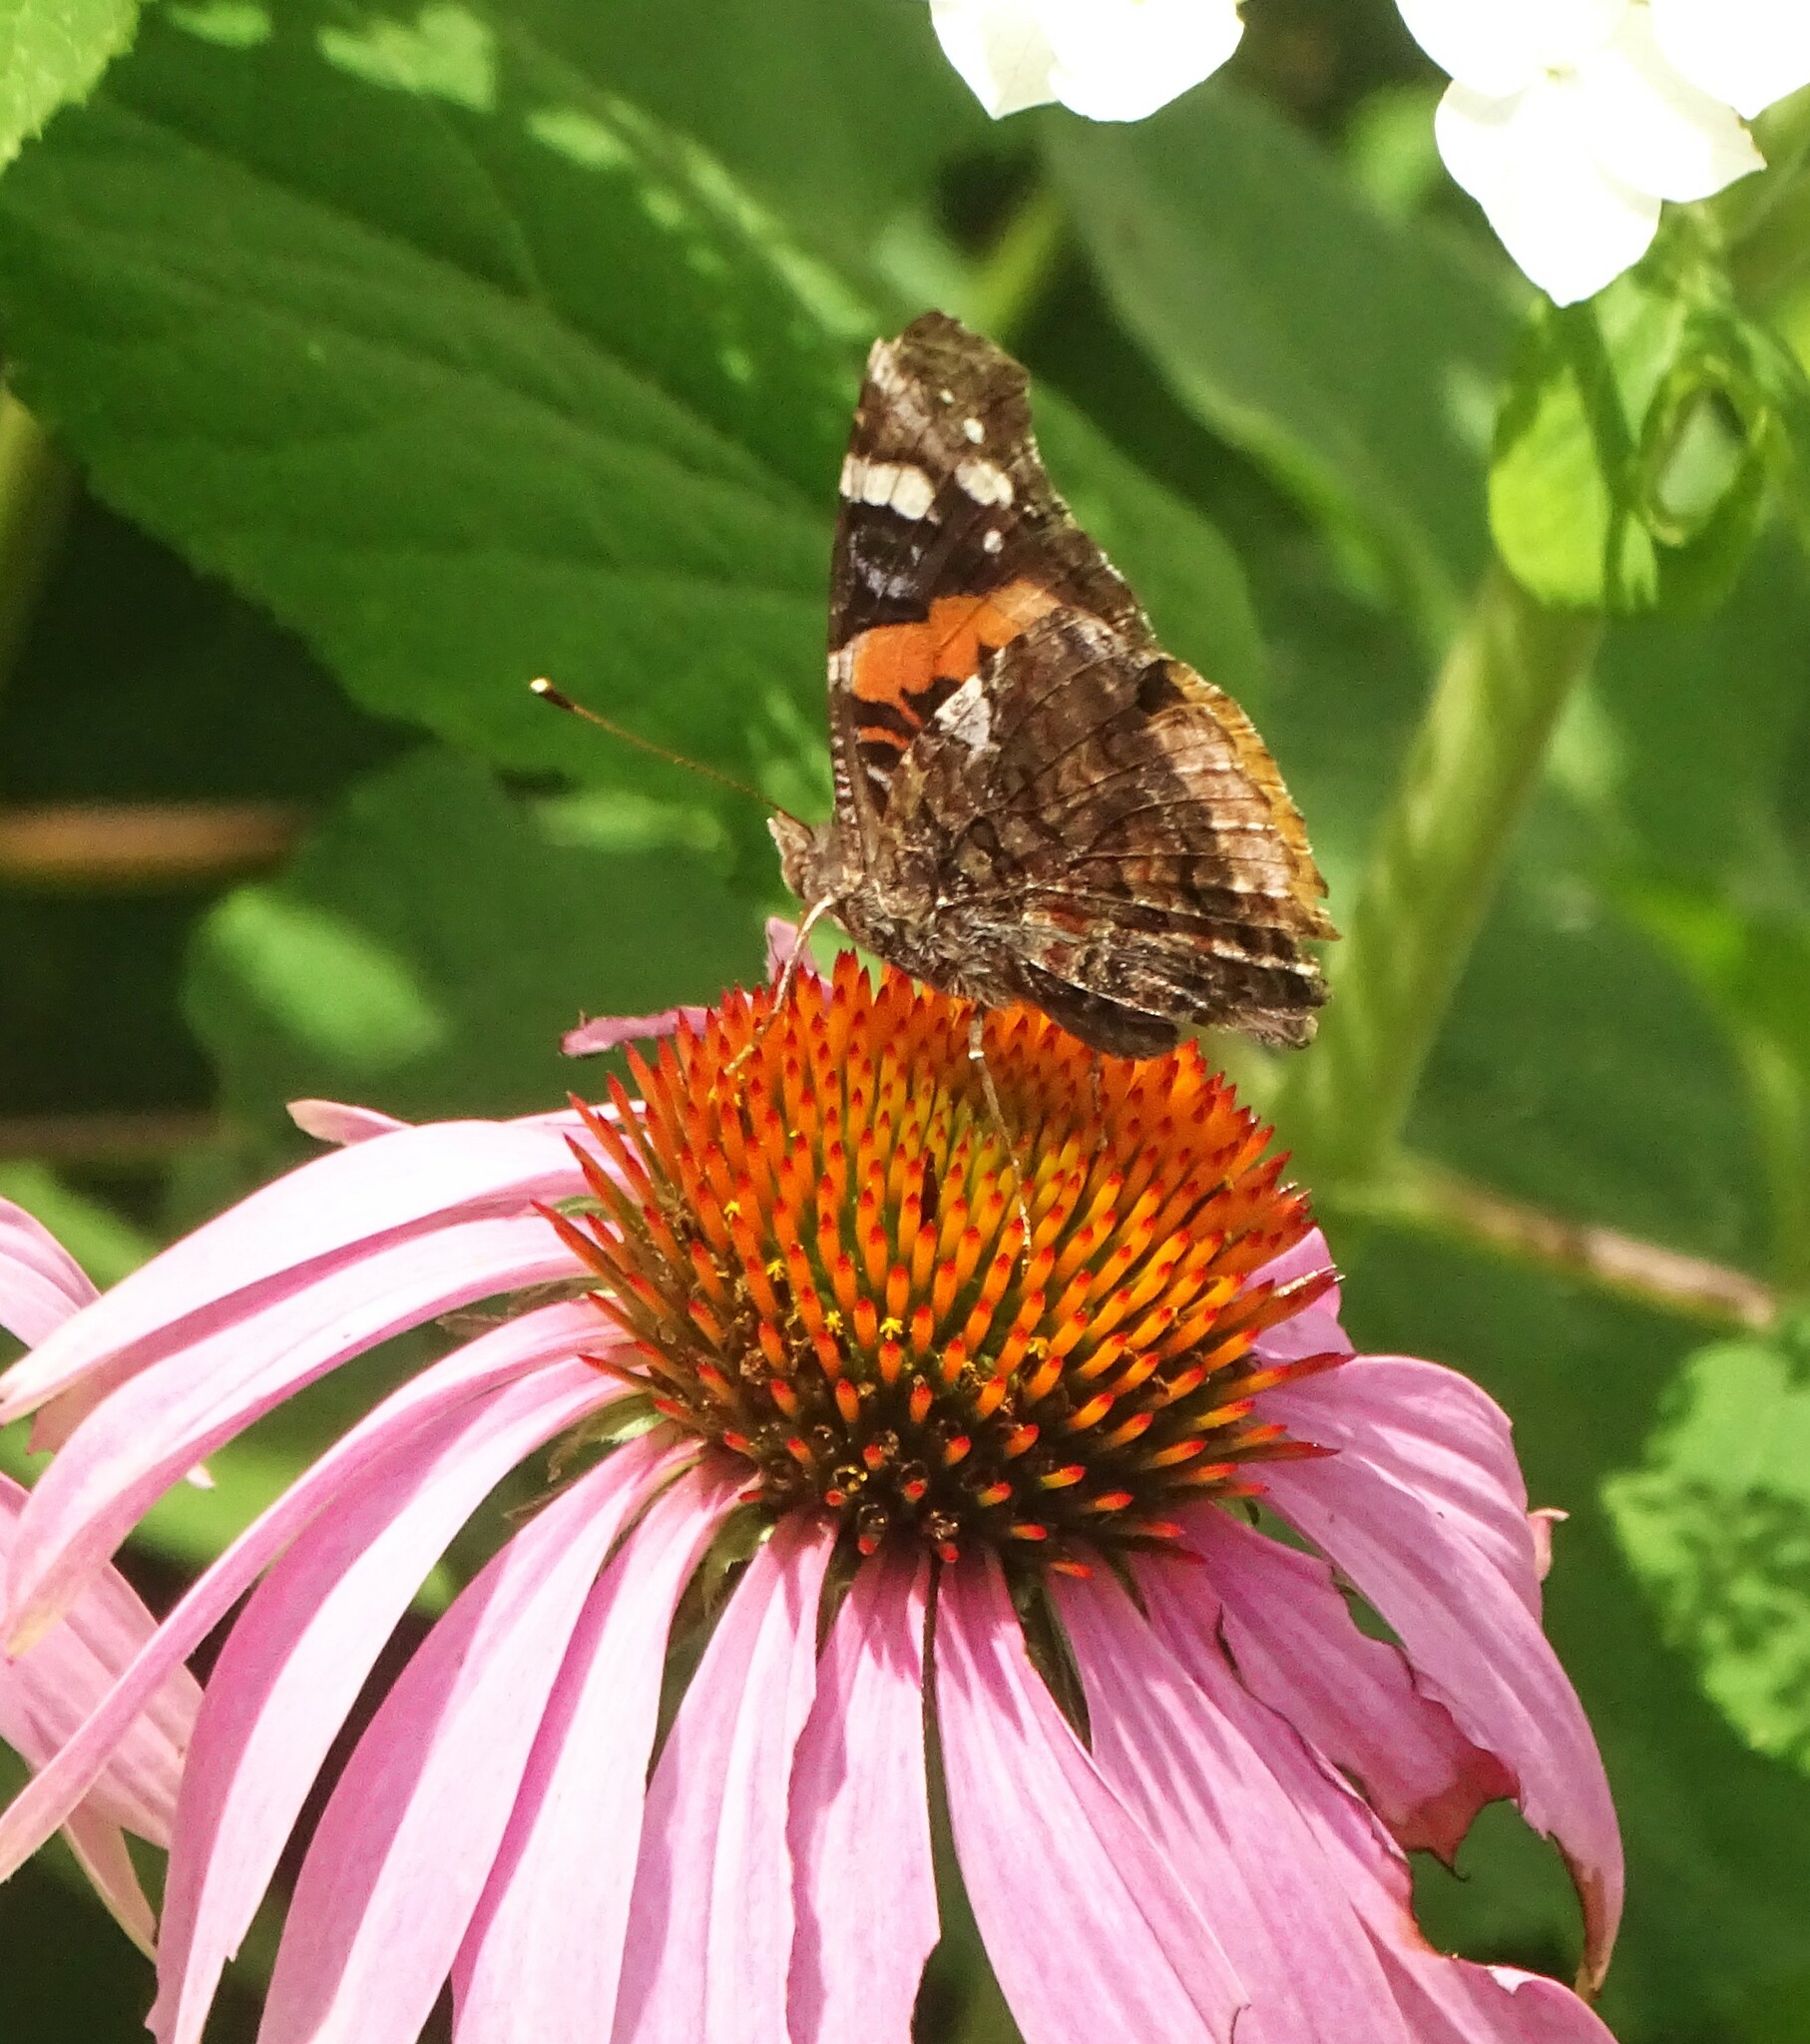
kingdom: Animalia
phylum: Arthropoda
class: Insecta
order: Lepidoptera
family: Nymphalidae
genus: Vanessa
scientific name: Vanessa atalanta
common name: Red admiral
